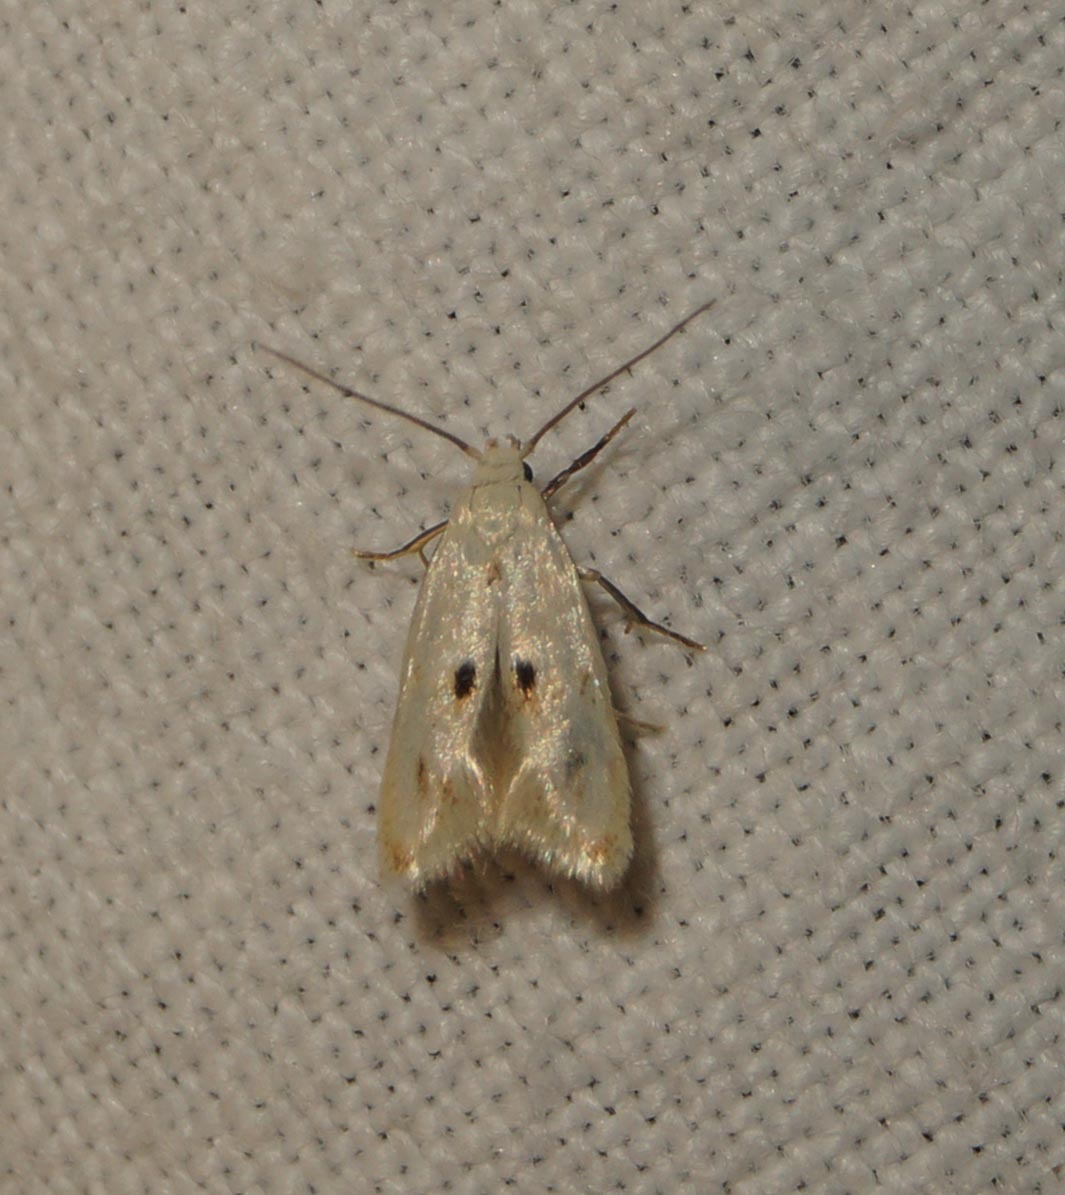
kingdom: Animalia
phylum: Arthropoda
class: Insecta
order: Lepidoptera
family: Elachistidae
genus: Elachista
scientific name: Elachista maculicerusella
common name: Triple-spot dwarf
